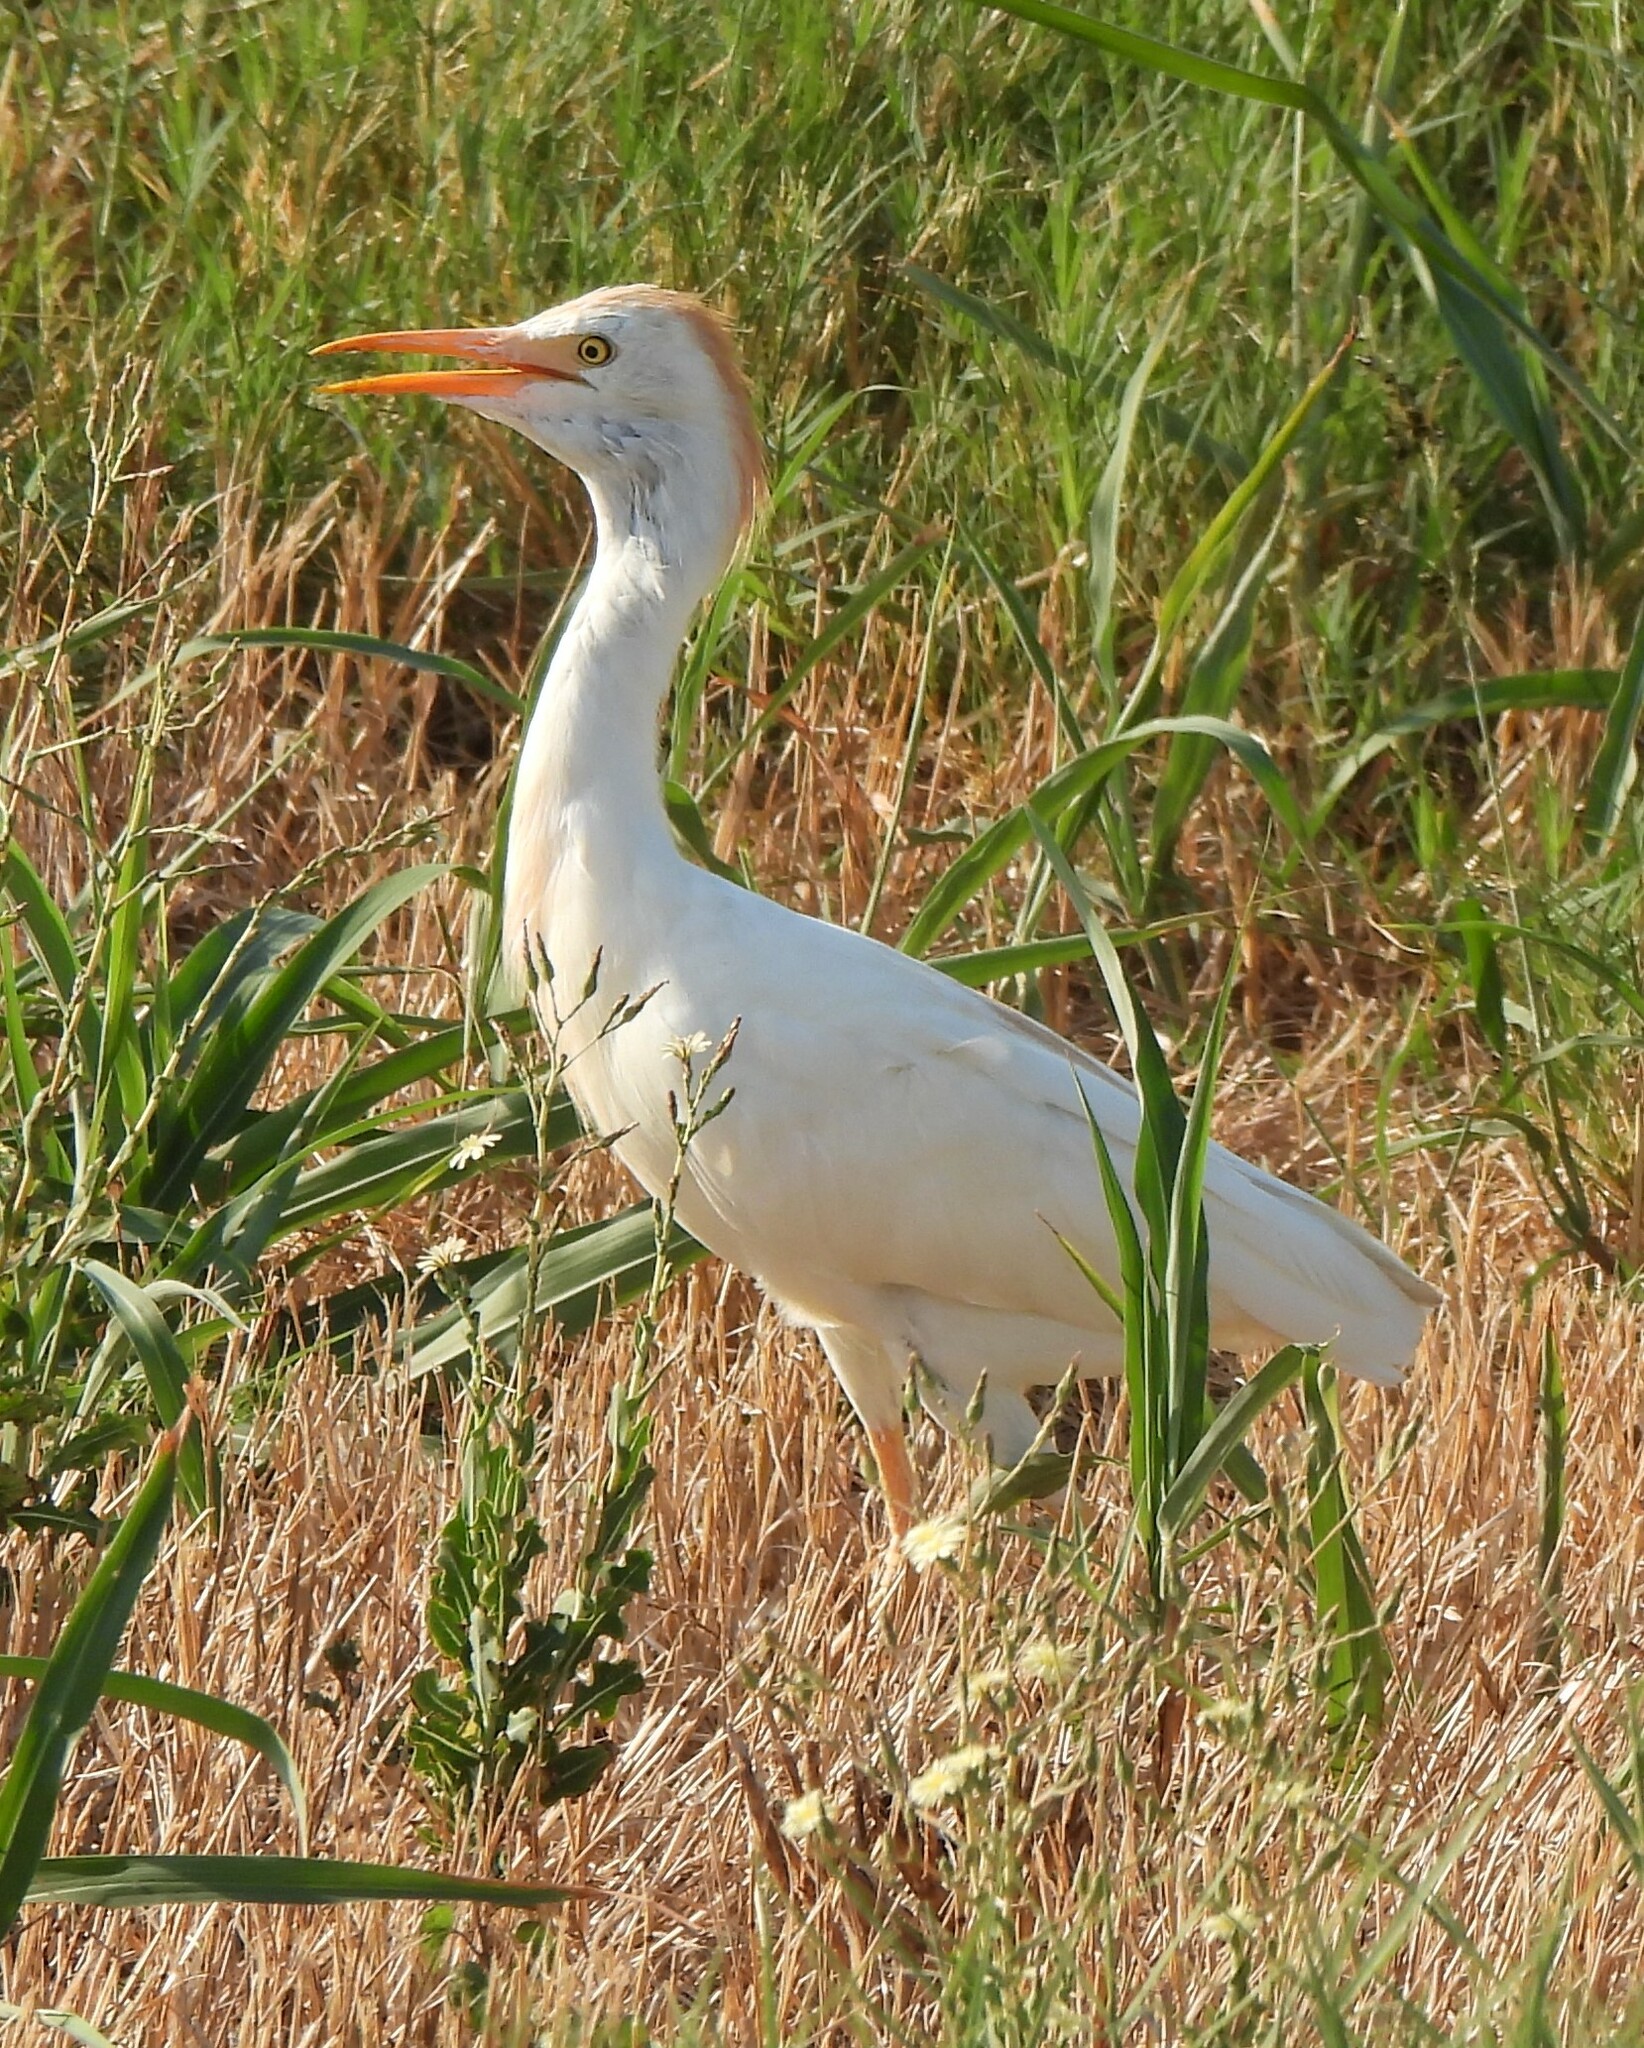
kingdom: Animalia
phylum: Chordata
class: Aves
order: Pelecaniformes
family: Ardeidae
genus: Bubulcus
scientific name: Bubulcus ibis
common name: Cattle egret
